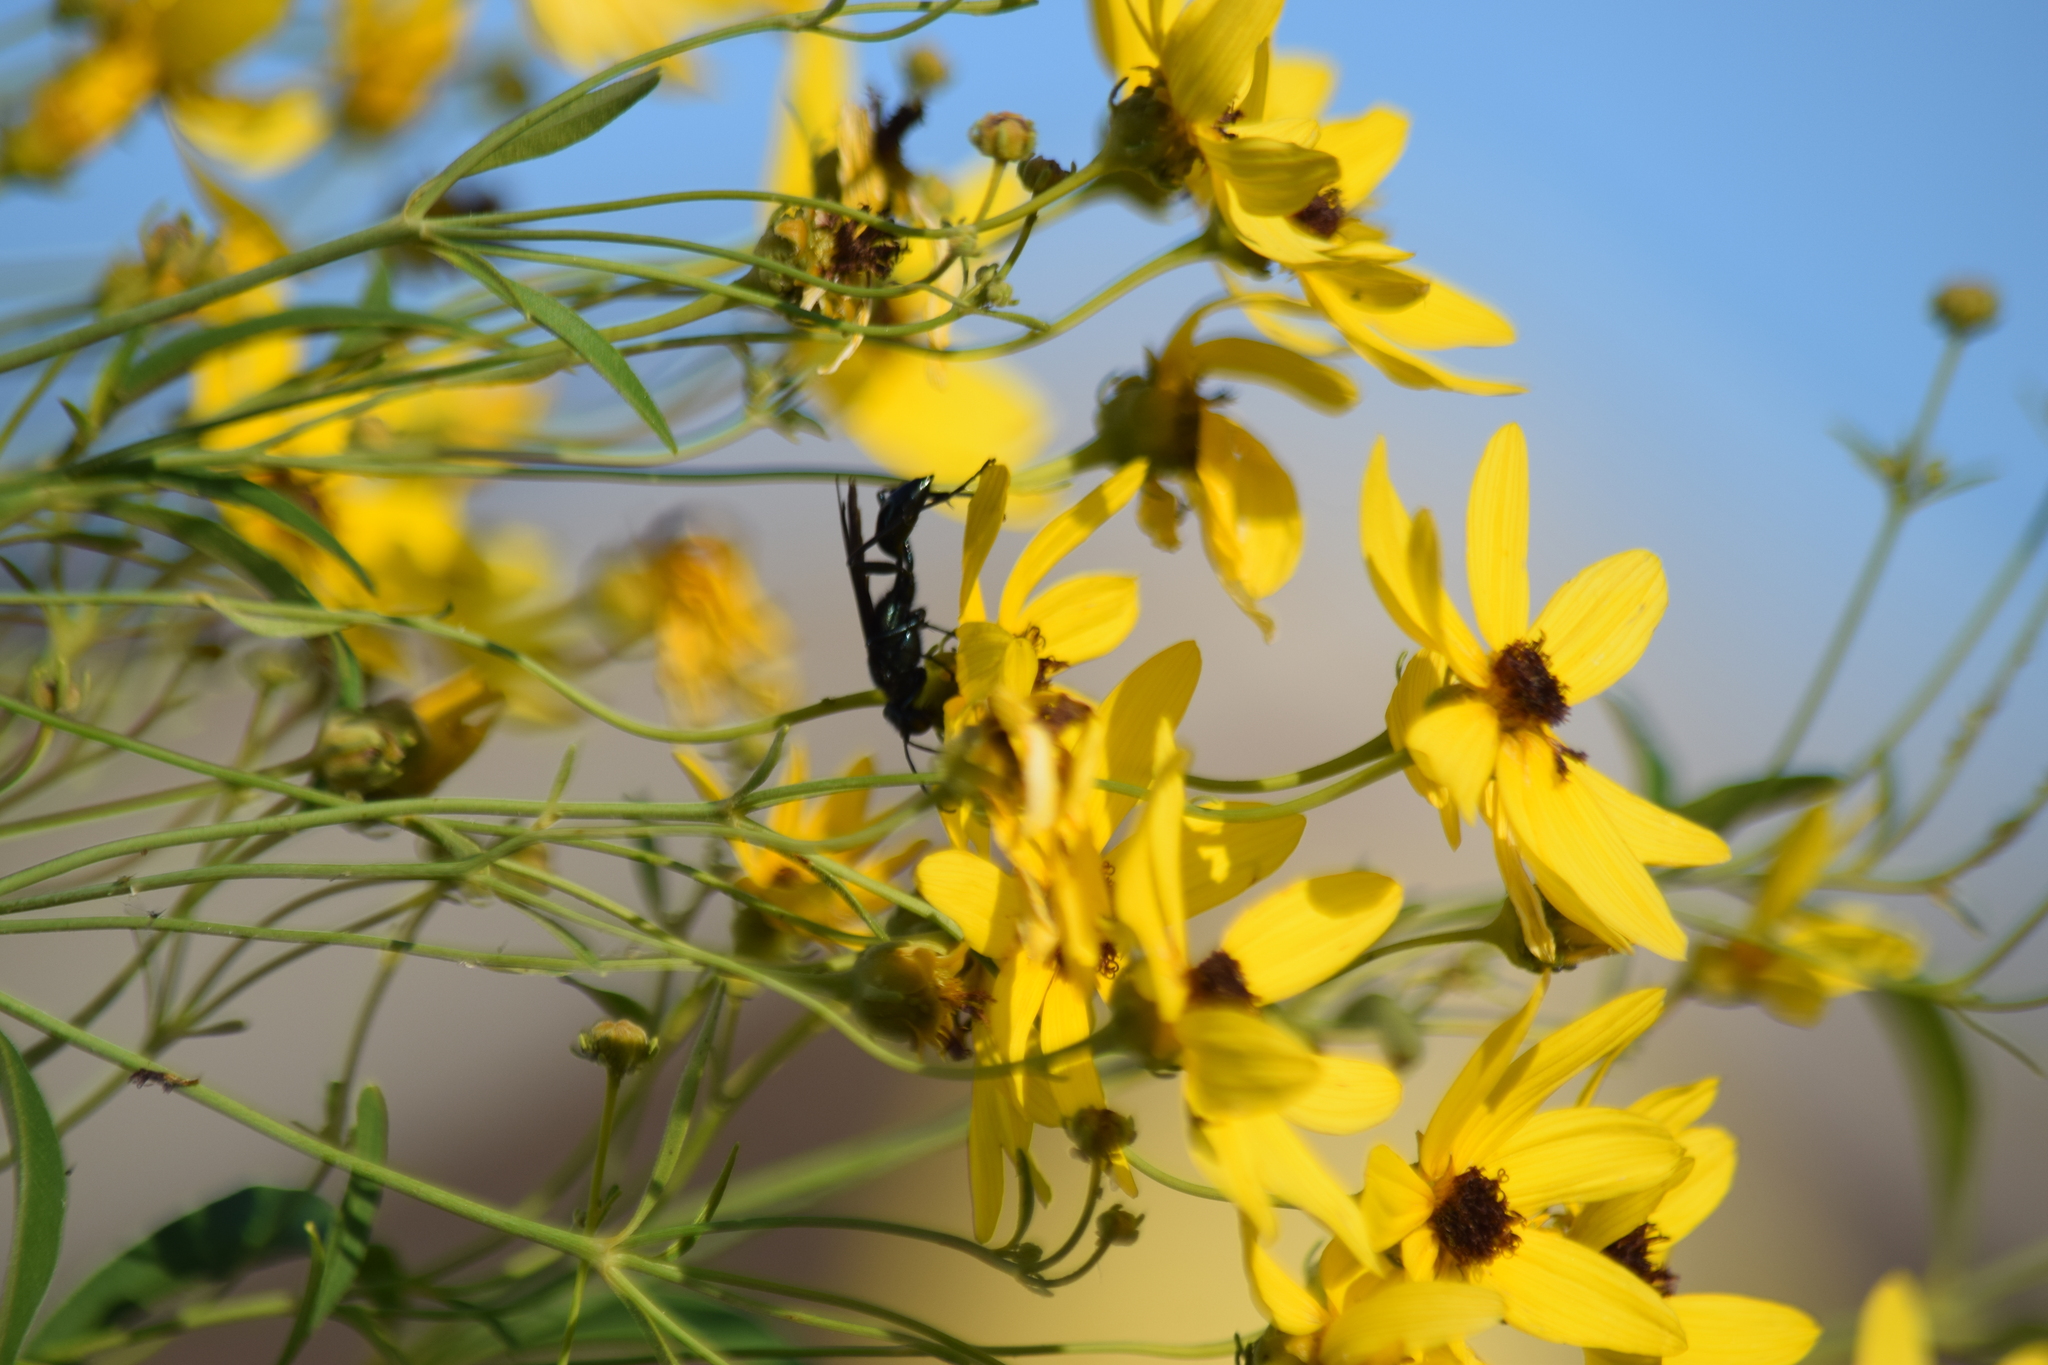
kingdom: Animalia
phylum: Arthropoda
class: Insecta
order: Hymenoptera
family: Sphecidae
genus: Chalybion
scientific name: Chalybion californicum
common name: Mud dauber
